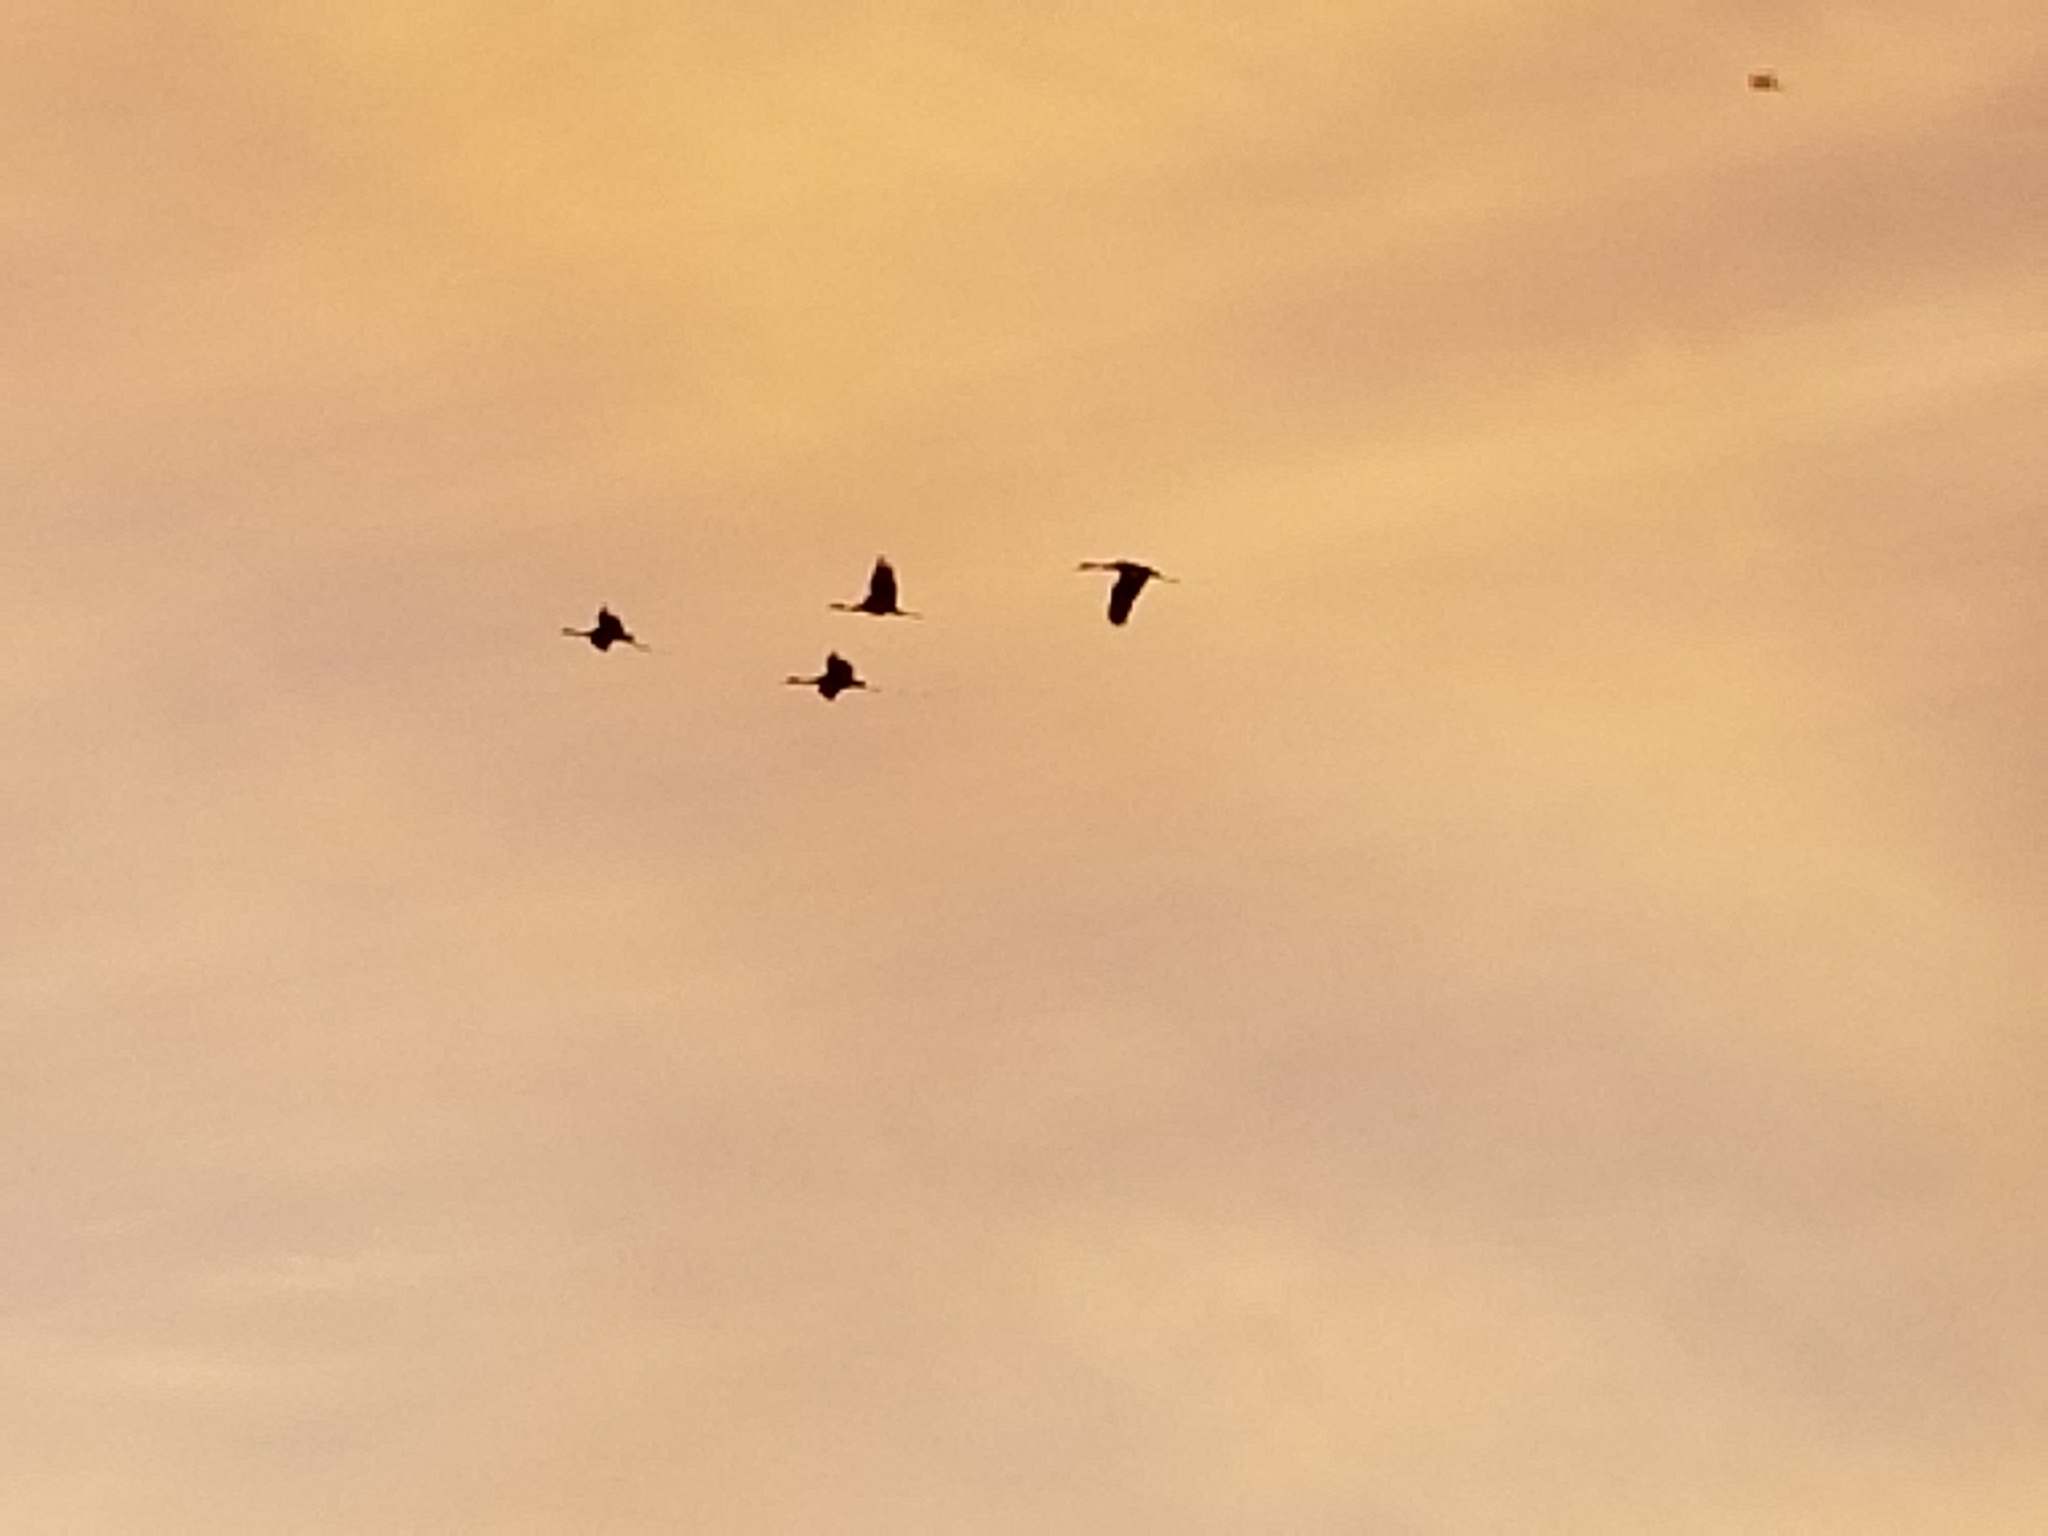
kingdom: Animalia
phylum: Chordata
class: Aves
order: Gruiformes
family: Gruidae
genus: Grus
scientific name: Grus canadensis
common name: Sandhill crane
